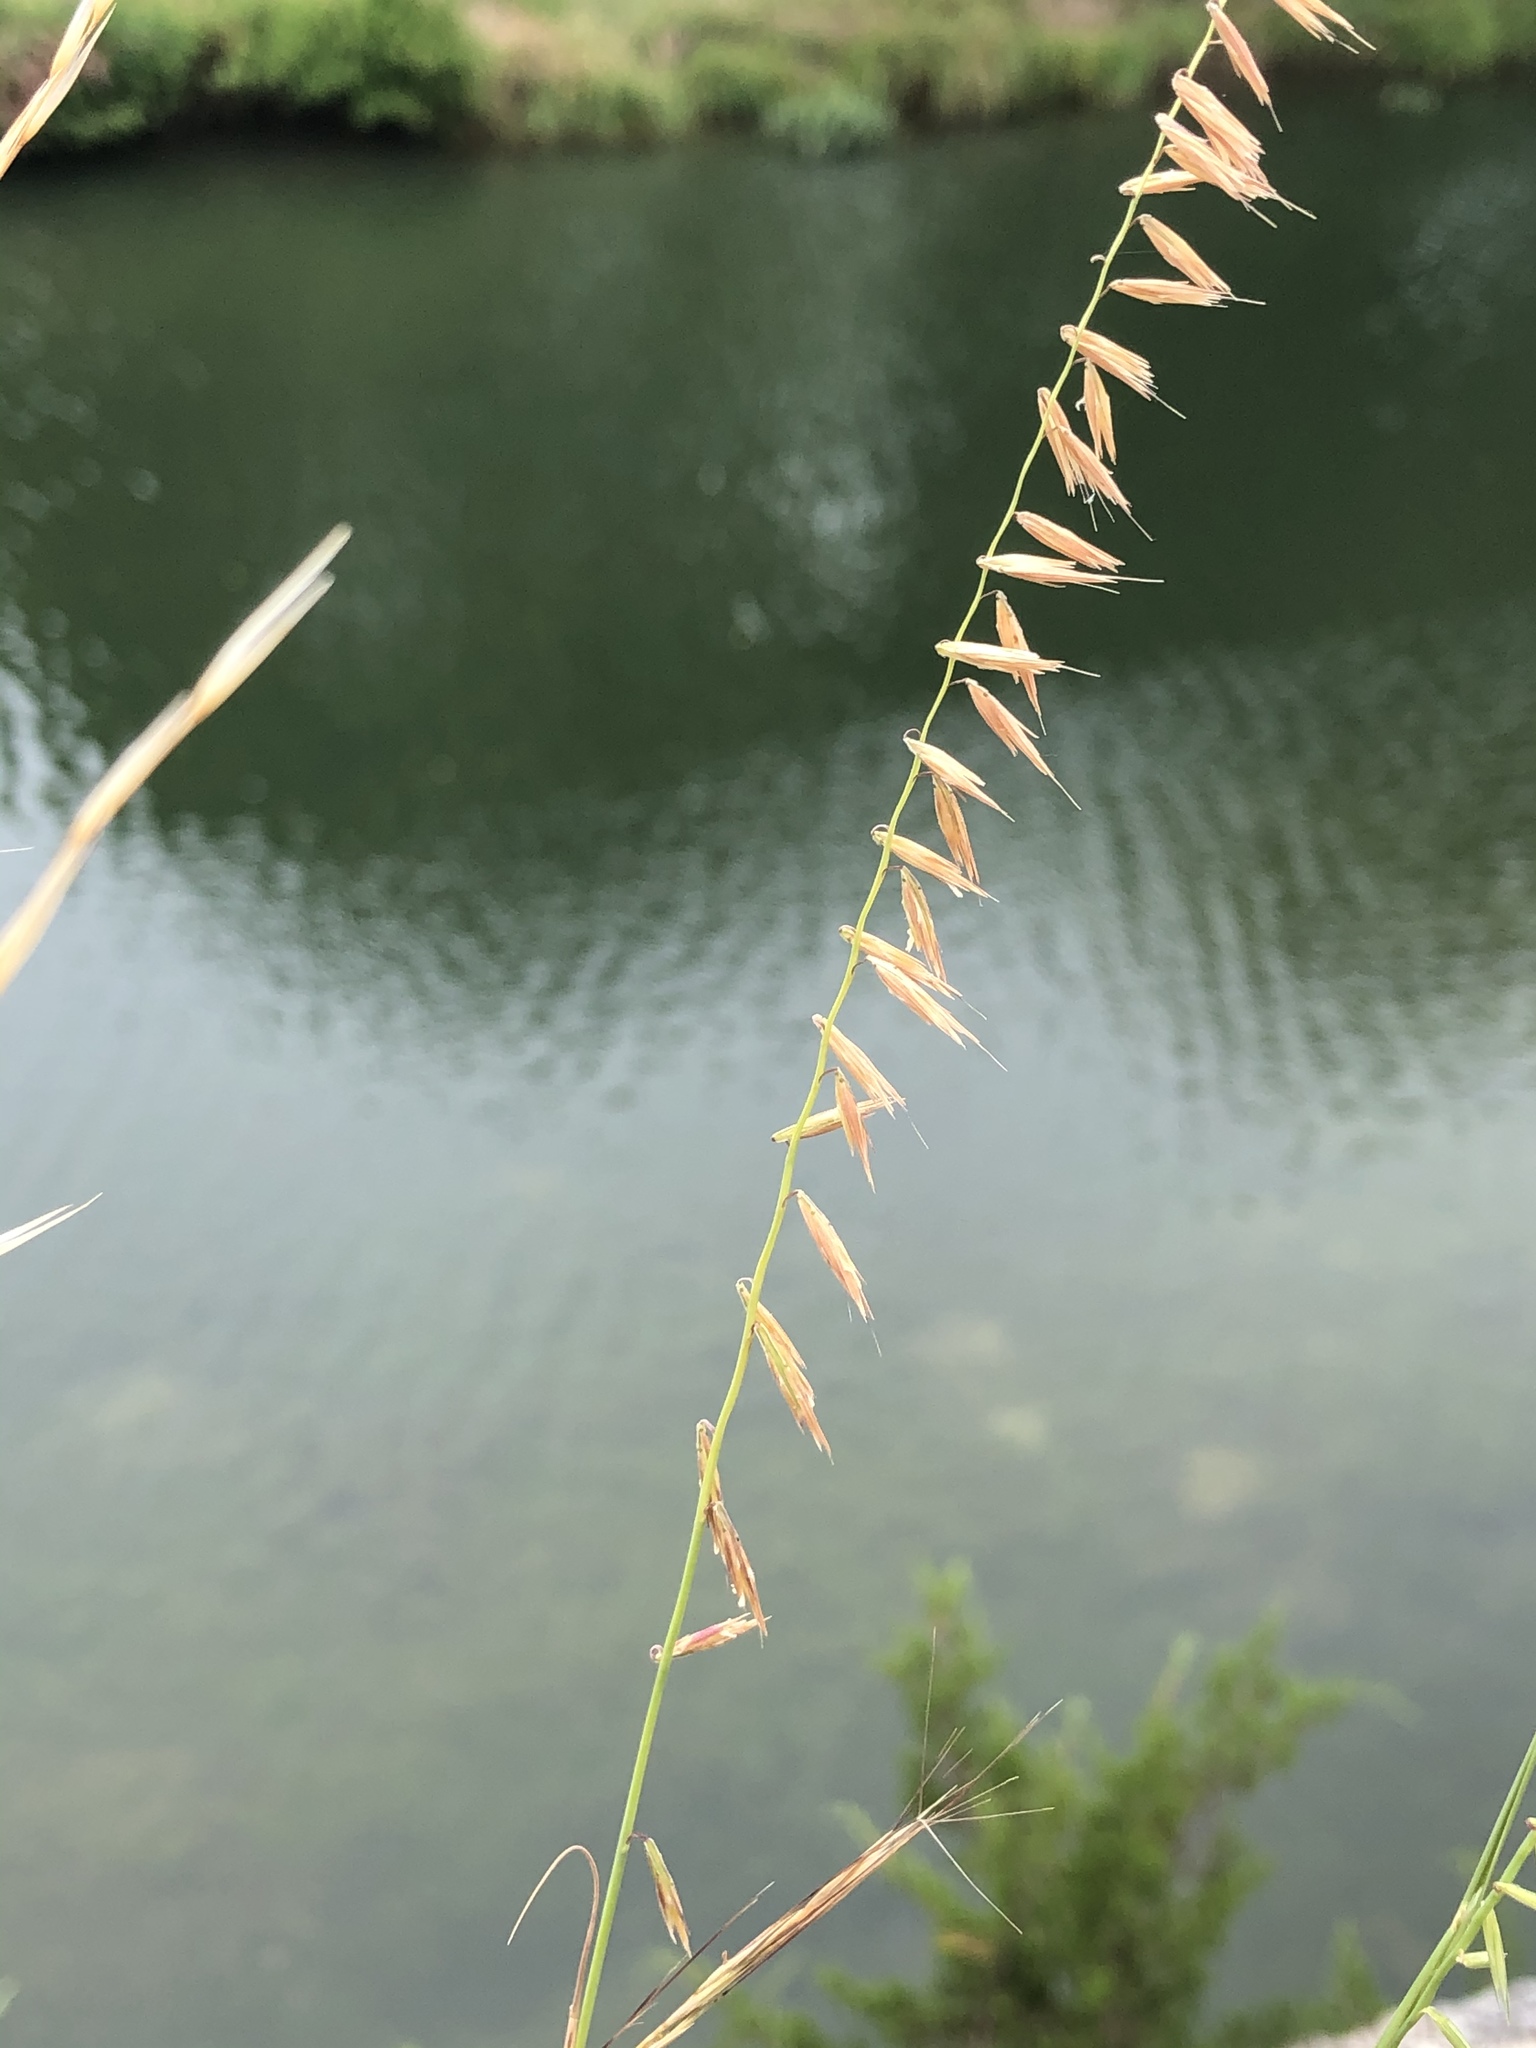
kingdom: Plantae
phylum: Tracheophyta
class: Liliopsida
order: Poales
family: Poaceae
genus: Bouteloua
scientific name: Bouteloua curtipendula
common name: Side-oats grama
